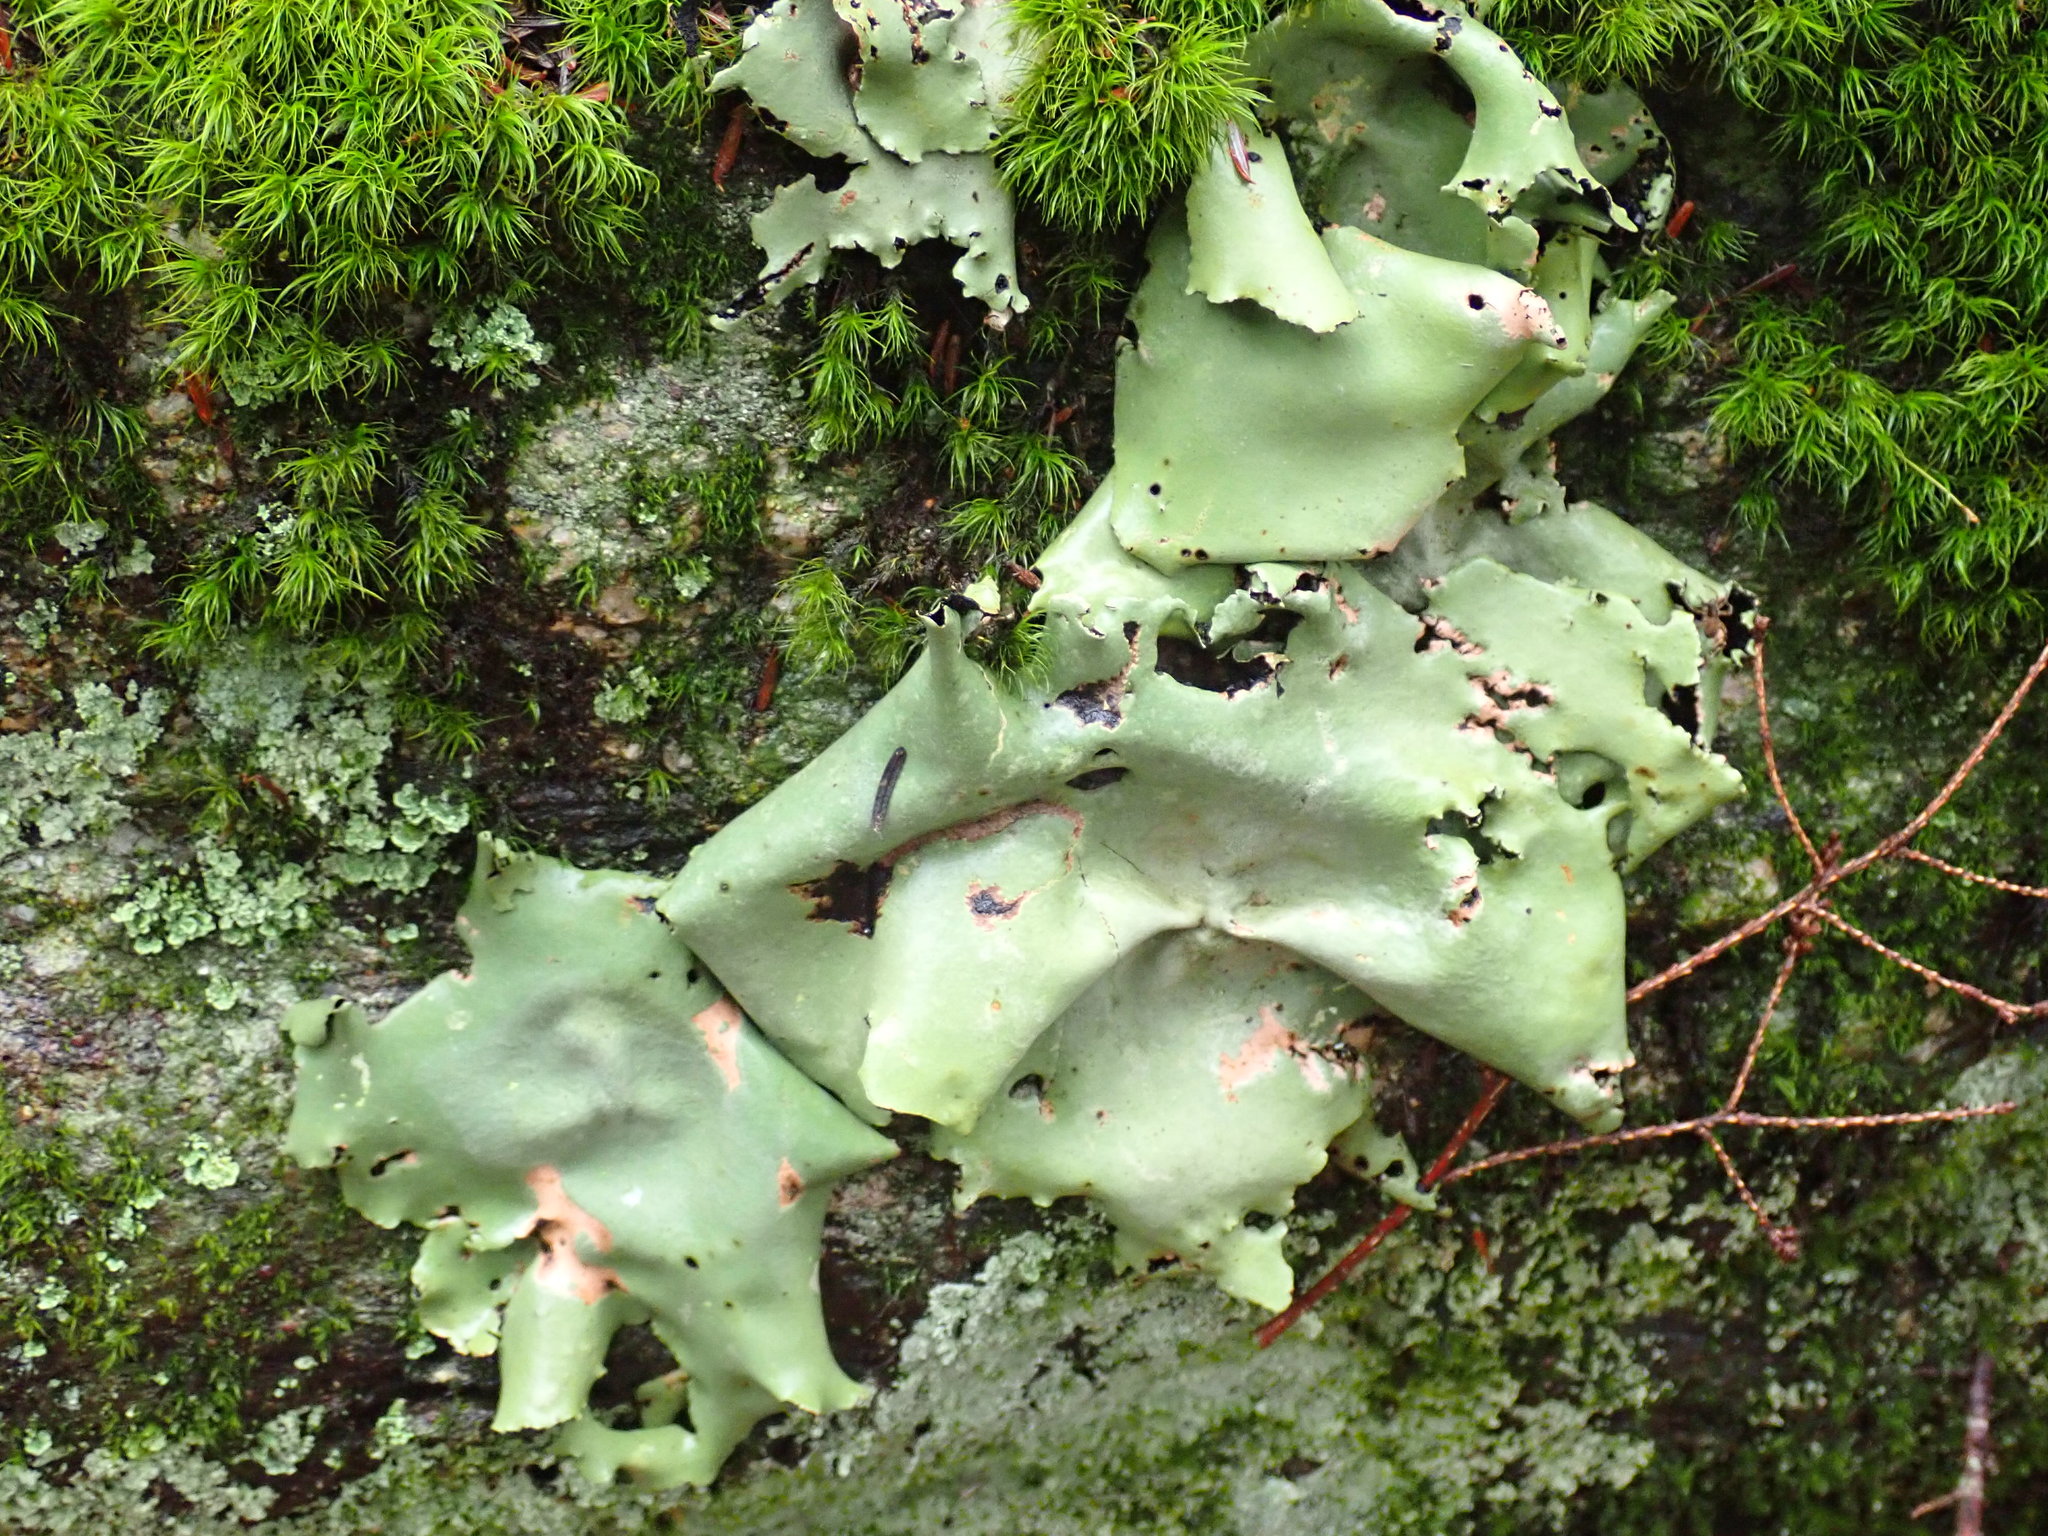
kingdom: Fungi
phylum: Ascomycota
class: Lecanoromycetes
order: Umbilicariales
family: Umbilicariaceae
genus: Umbilicaria
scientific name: Umbilicaria mammulata
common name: Smooth rock tripe
